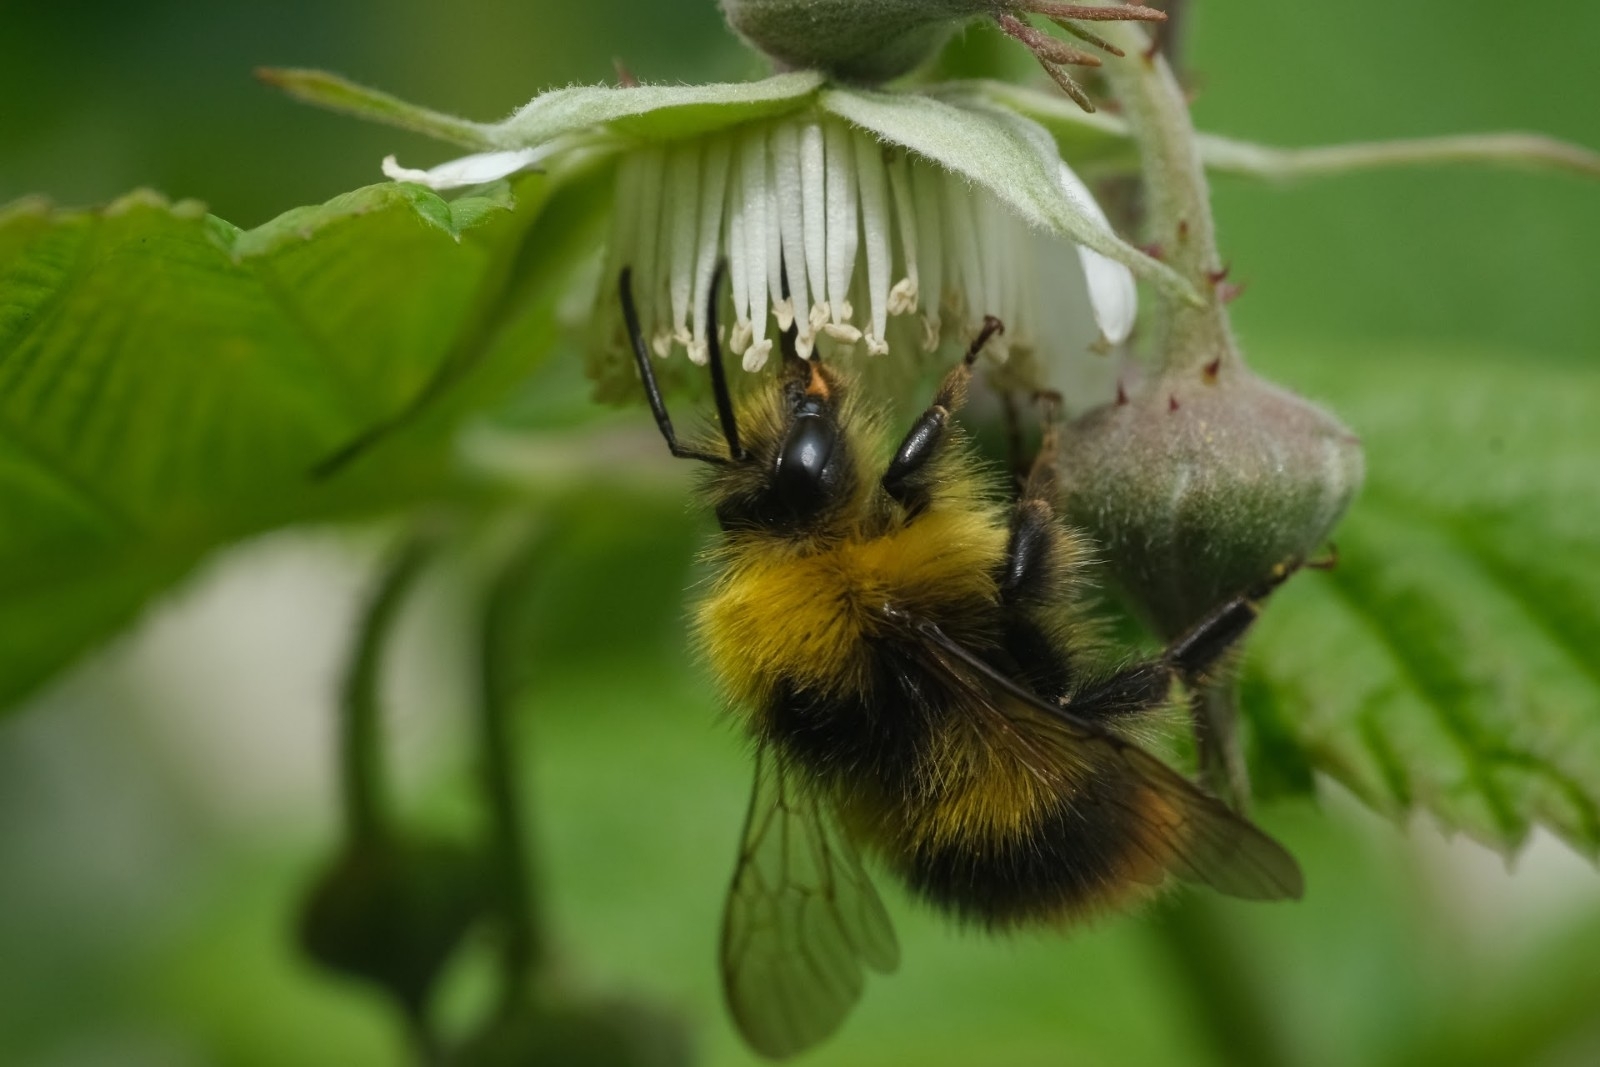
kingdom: Animalia
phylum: Arthropoda
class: Insecta
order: Hymenoptera
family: Apidae
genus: Bombus
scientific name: Bombus pratorum
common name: Early humble-bee
